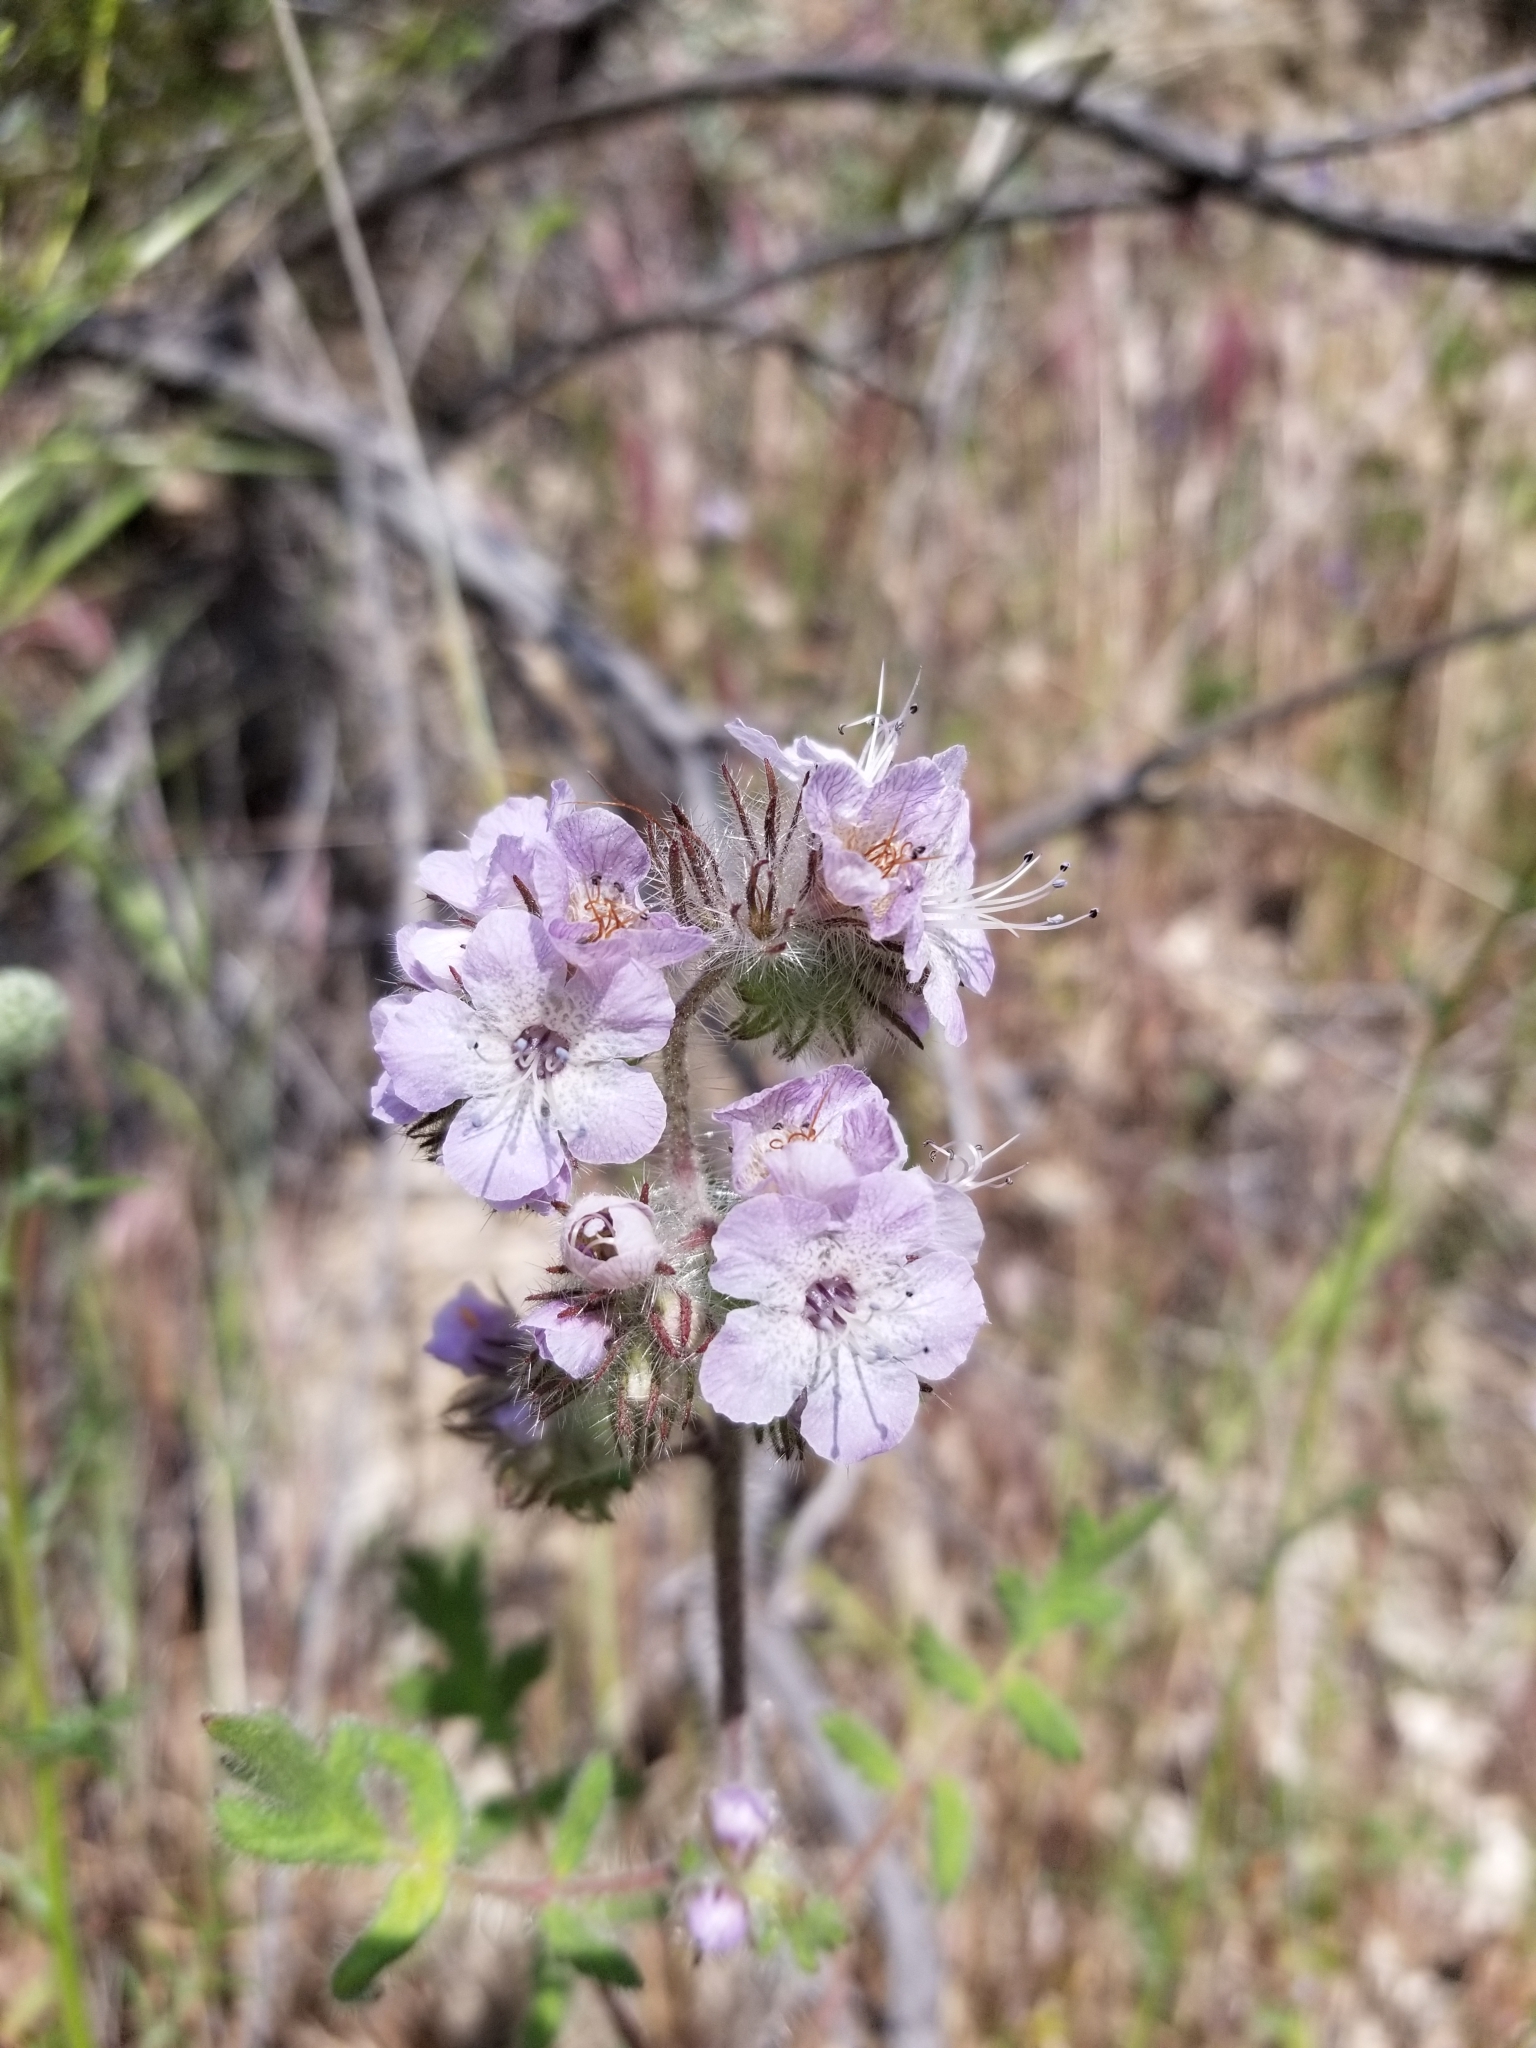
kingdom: Plantae
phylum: Tracheophyta
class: Magnoliopsida
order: Boraginales
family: Hydrophyllaceae
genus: Phacelia
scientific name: Phacelia cicutaria
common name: Caterpillar phacelia
